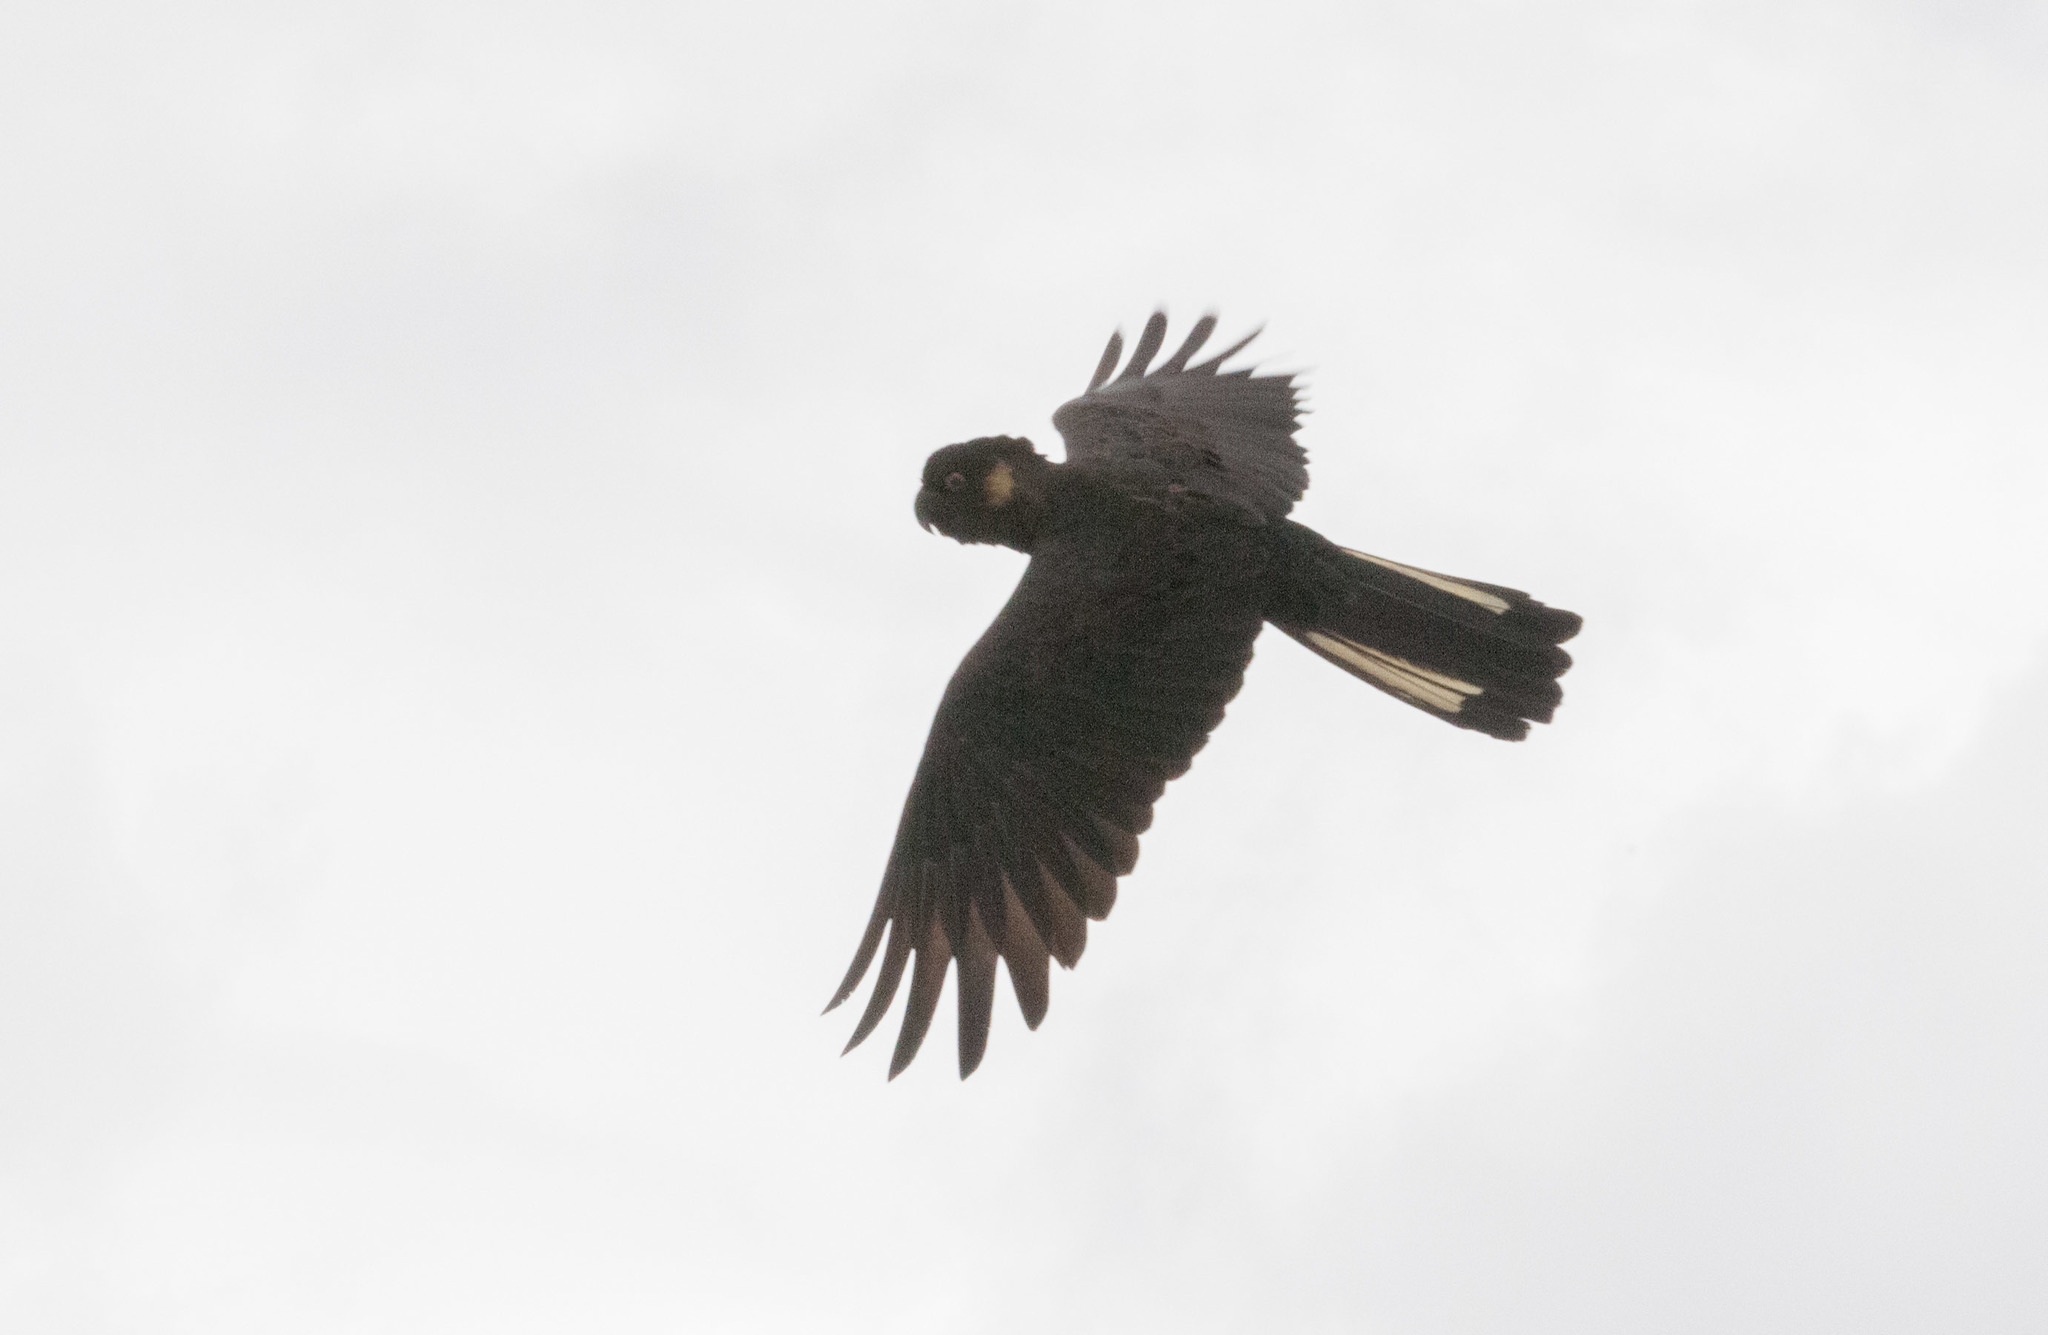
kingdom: Animalia
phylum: Chordata
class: Aves
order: Psittaciformes
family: Cacatuidae
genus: Zanda
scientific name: Zanda funerea
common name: Yellow-tailed black-cockatoo
